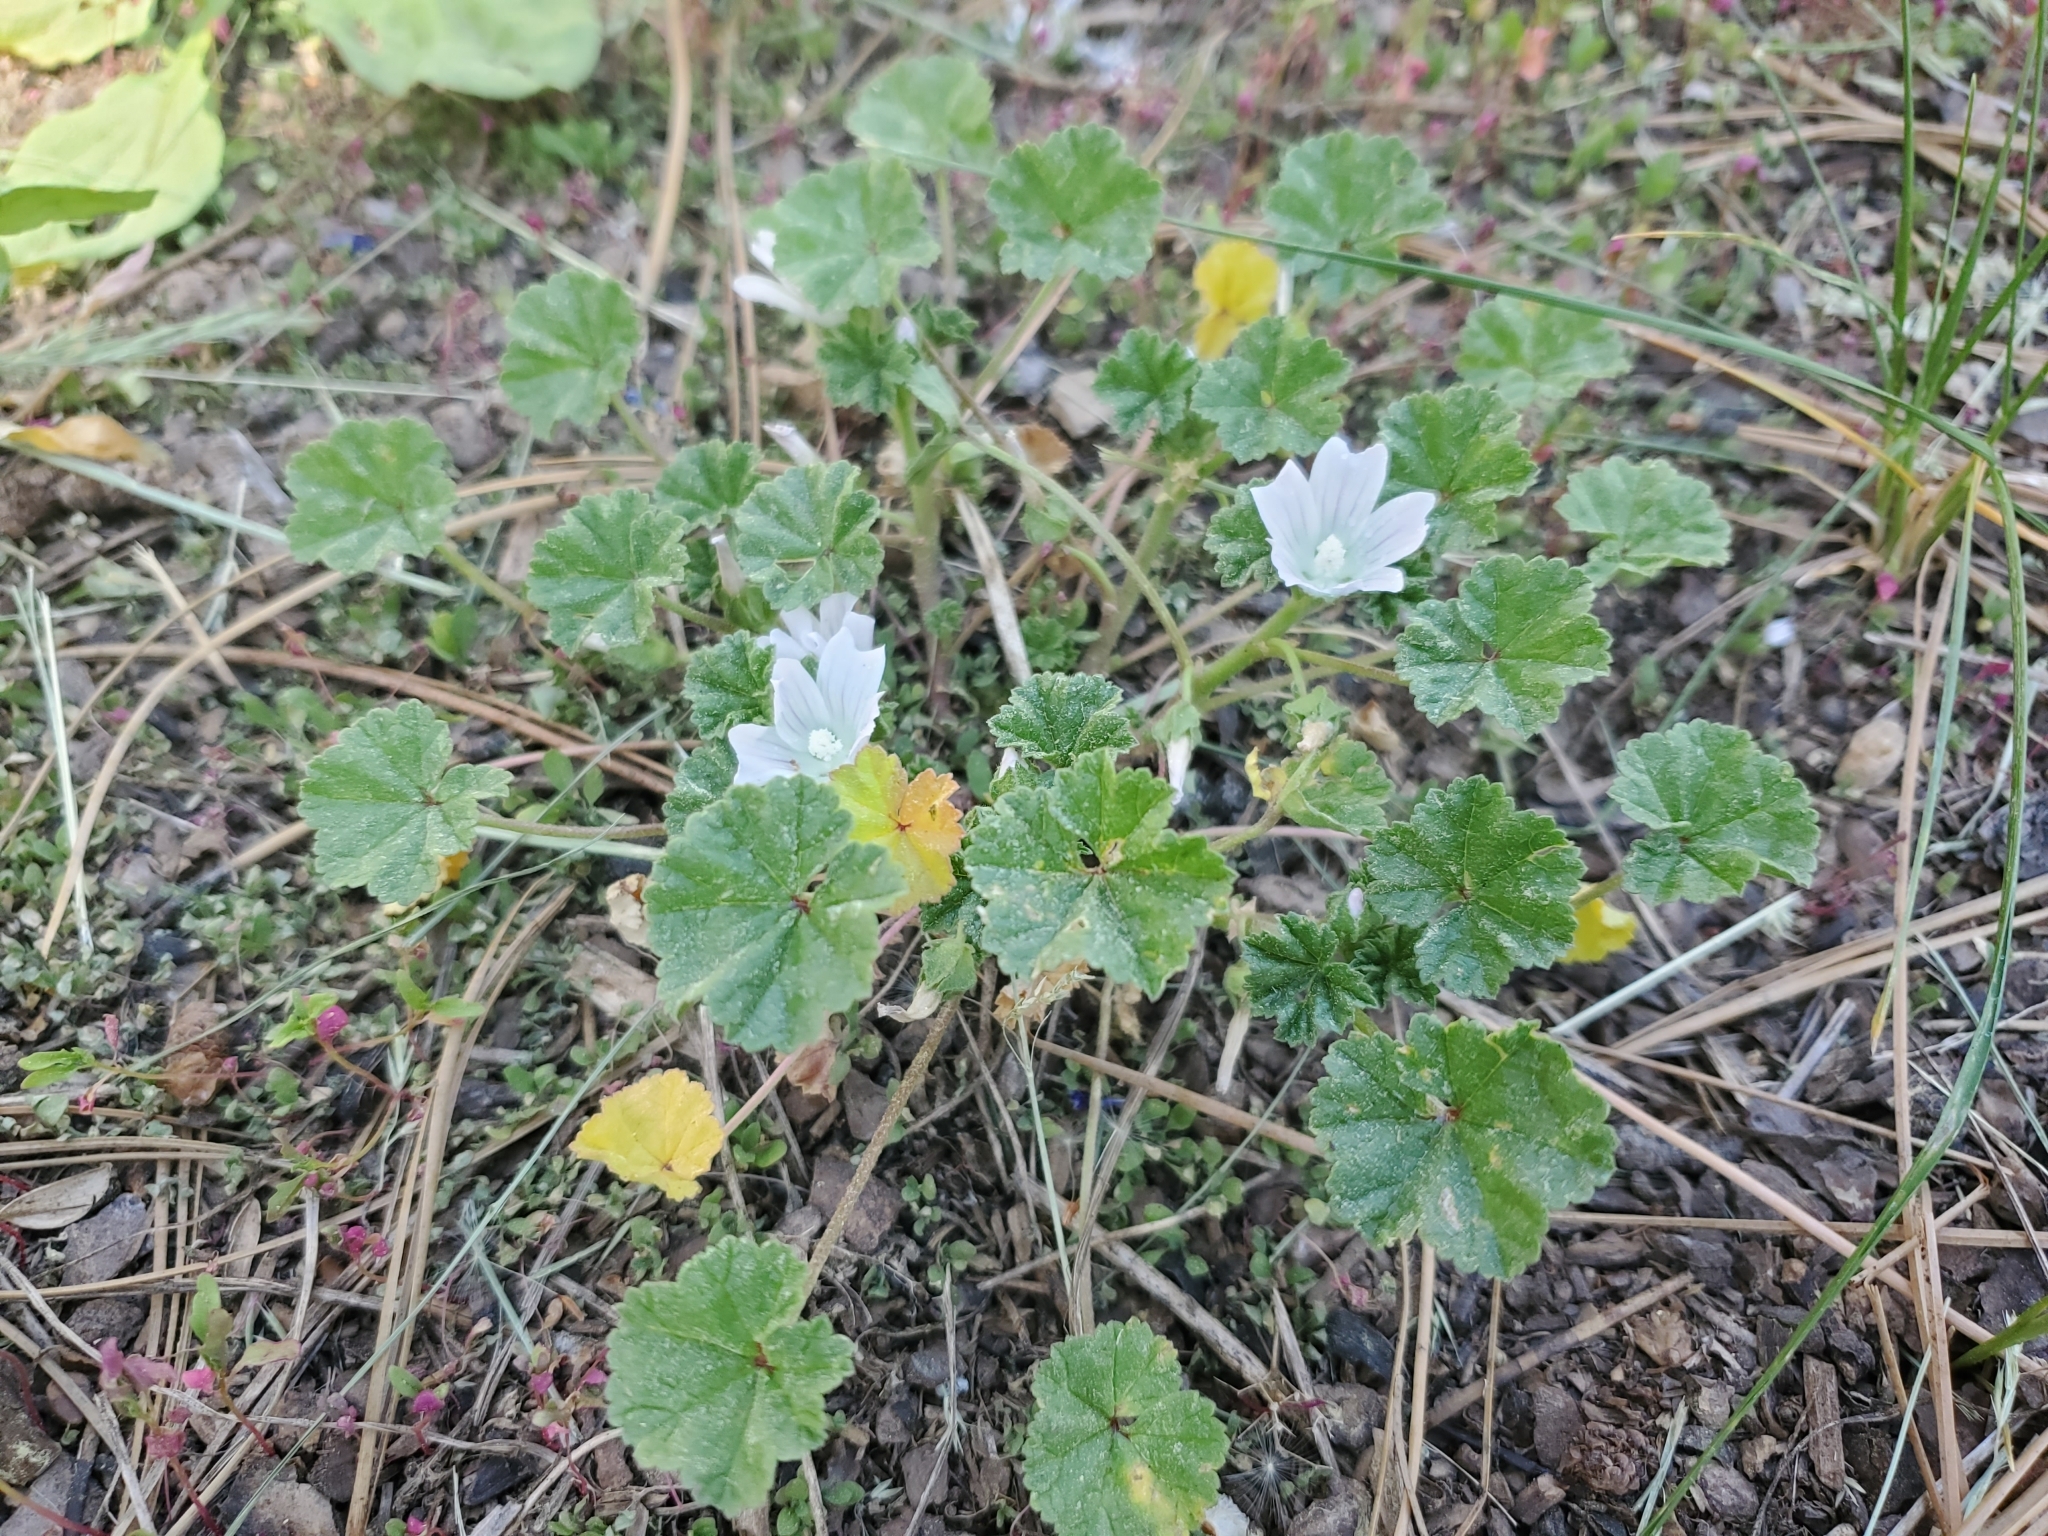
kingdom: Plantae
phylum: Tracheophyta
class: Magnoliopsida
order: Malvales
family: Malvaceae
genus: Malva
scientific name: Malva neglecta
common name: Common mallow
